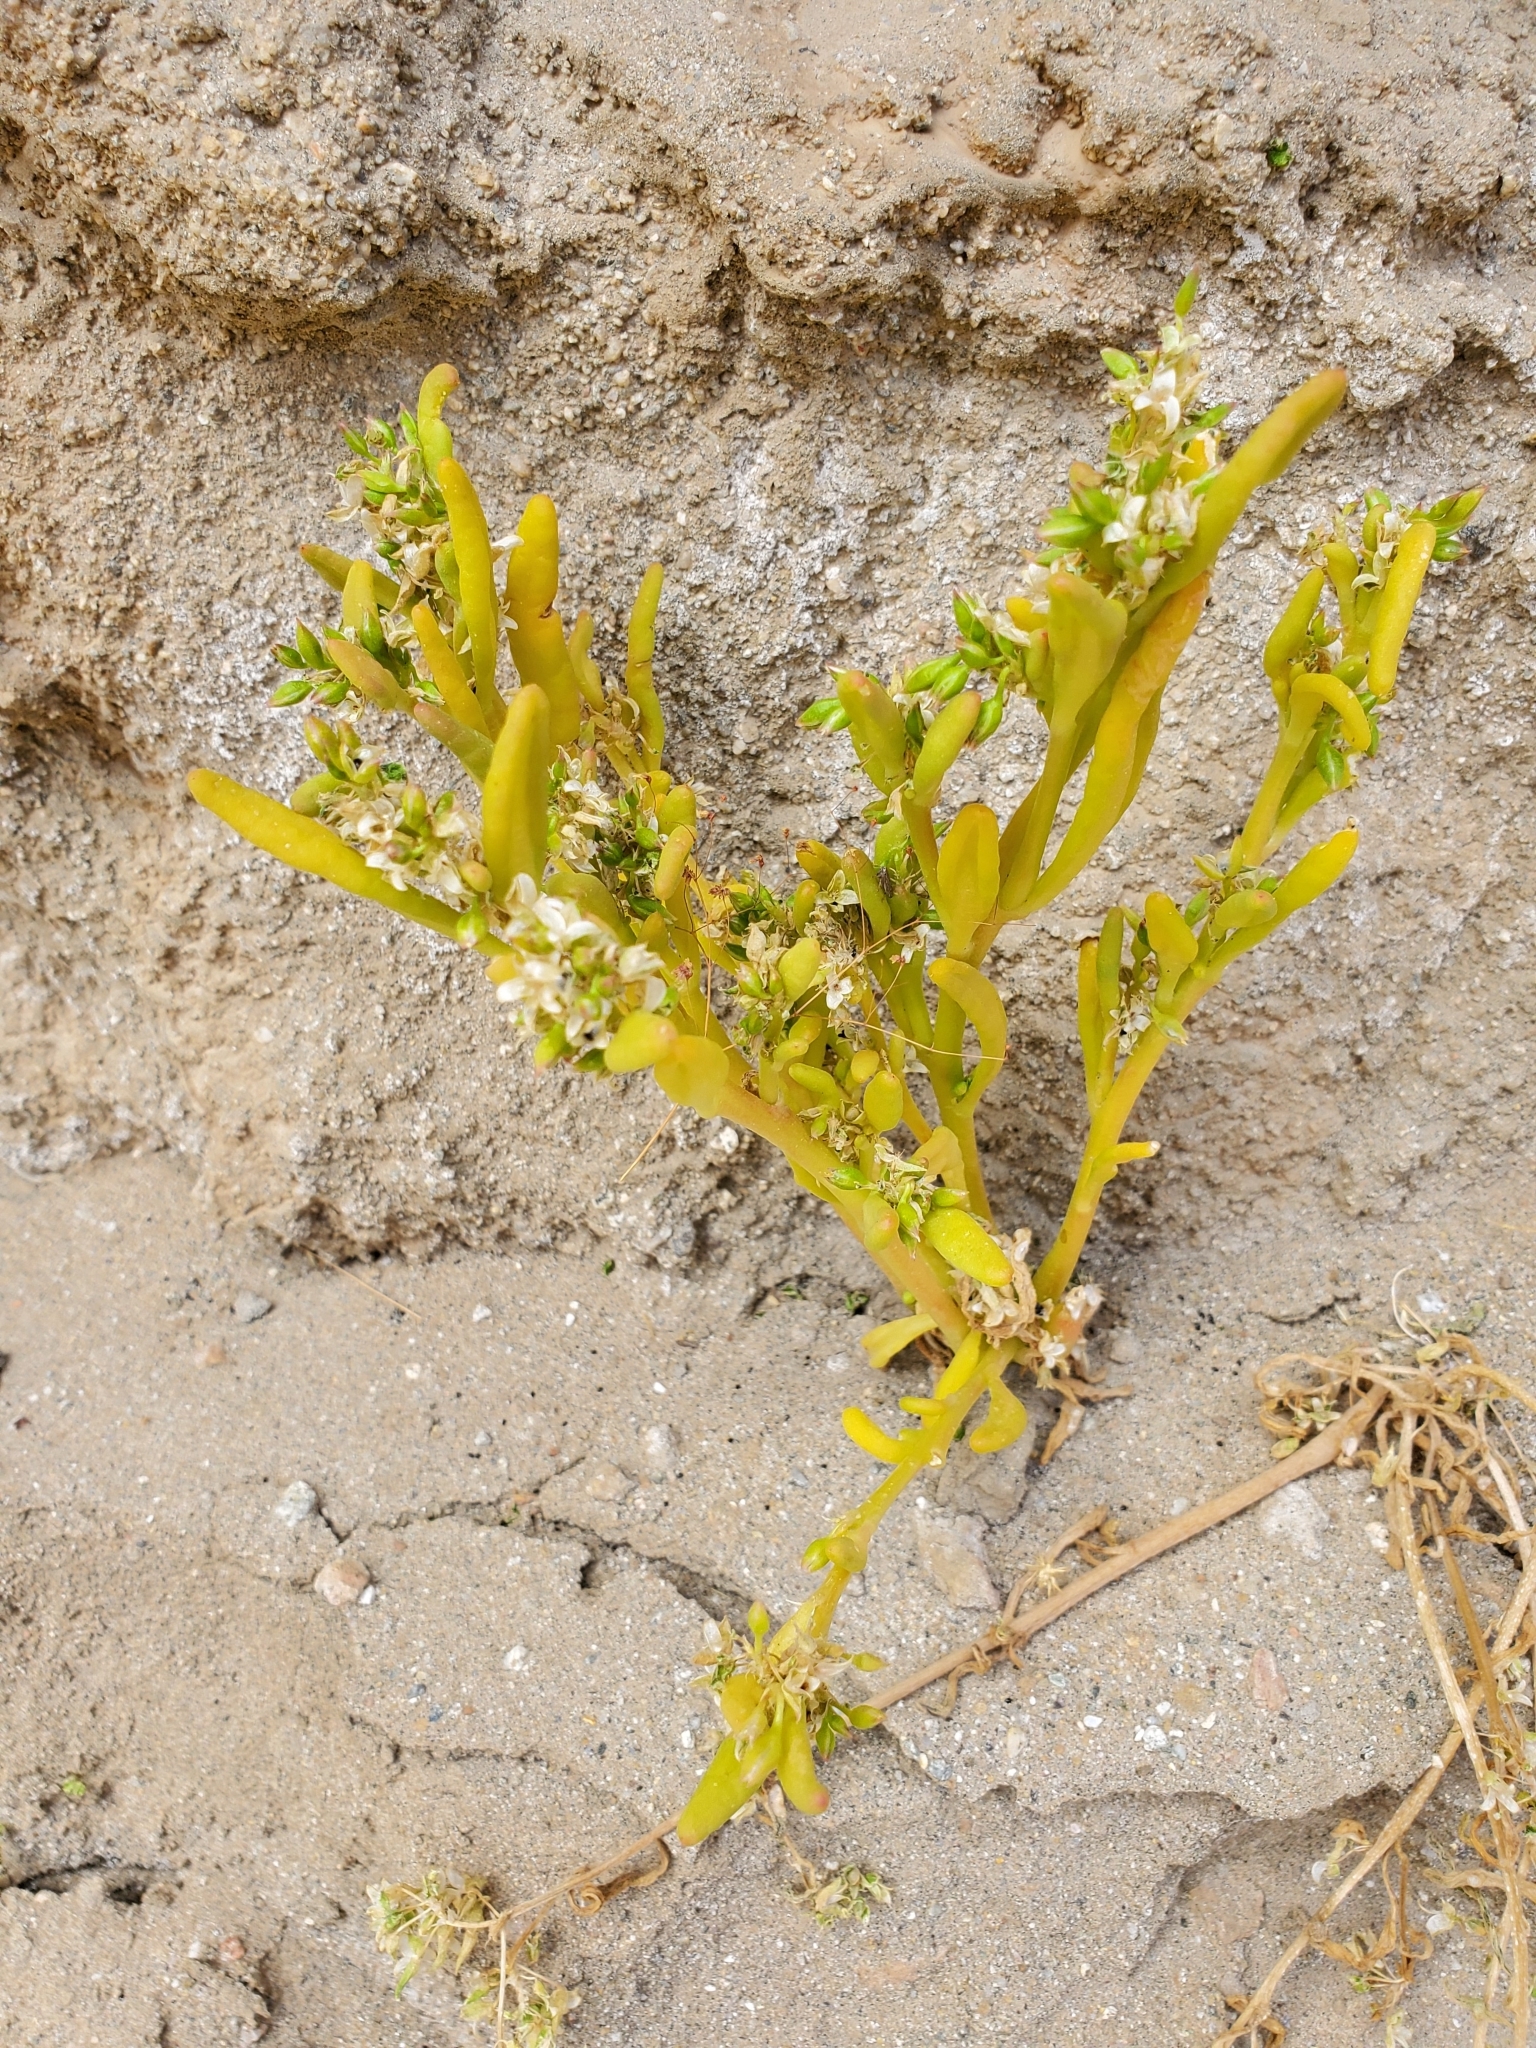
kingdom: Plantae
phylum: Tracheophyta
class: Magnoliopsida
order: Caryophyllales
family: Montiaceae
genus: Thingia
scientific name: Thingia ambigua
